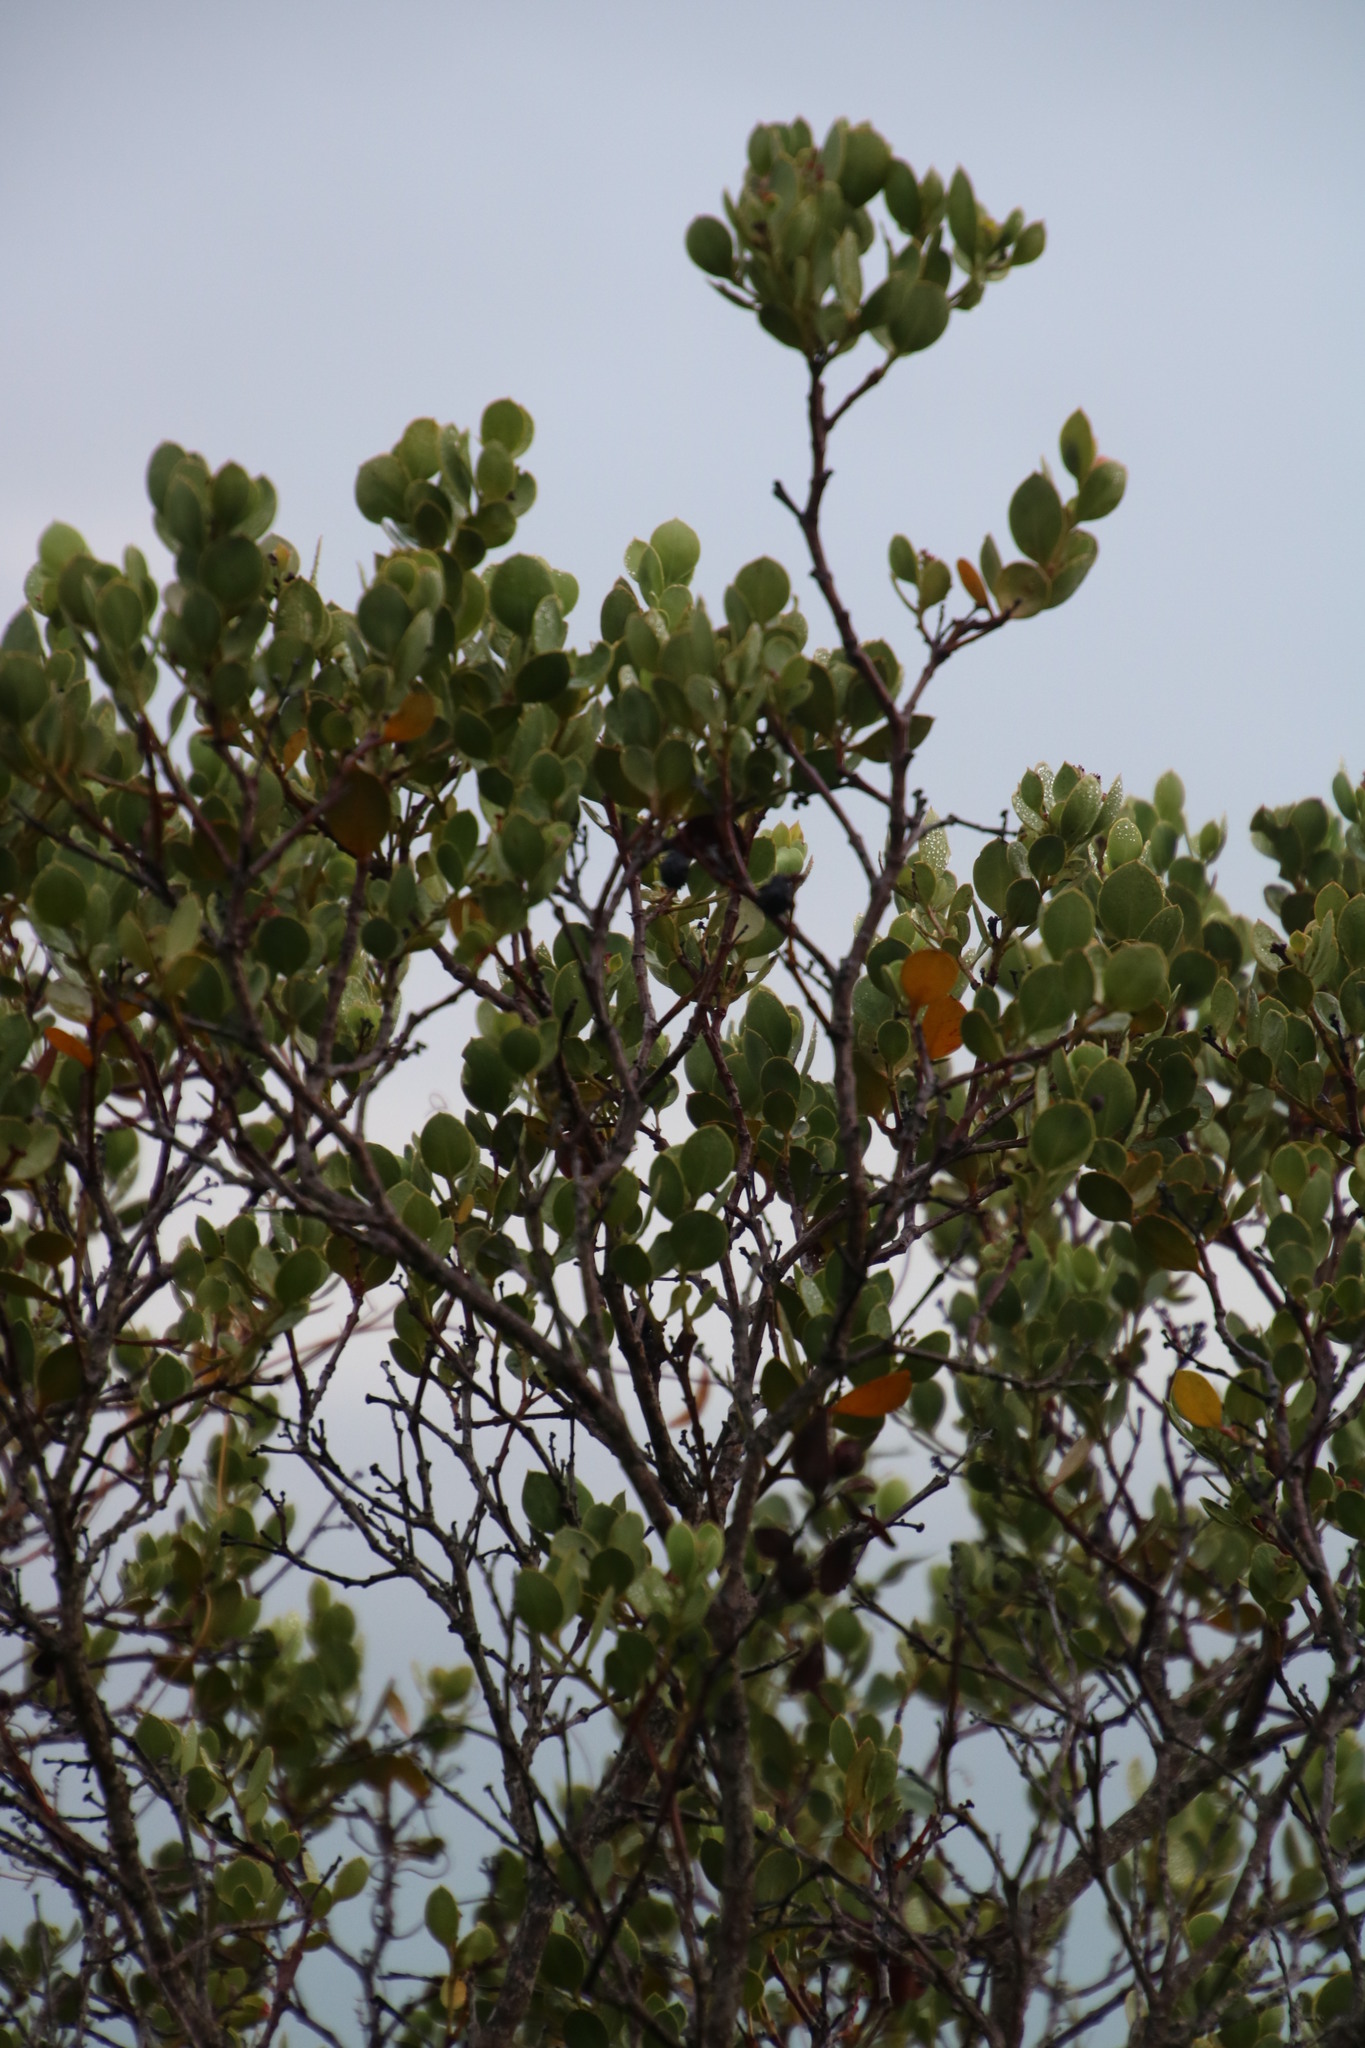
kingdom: Plantae
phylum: Tracheophyta
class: Magnoliopsida
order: Santalales
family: Santalaceae
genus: Osyris
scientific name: Osyris compressa
